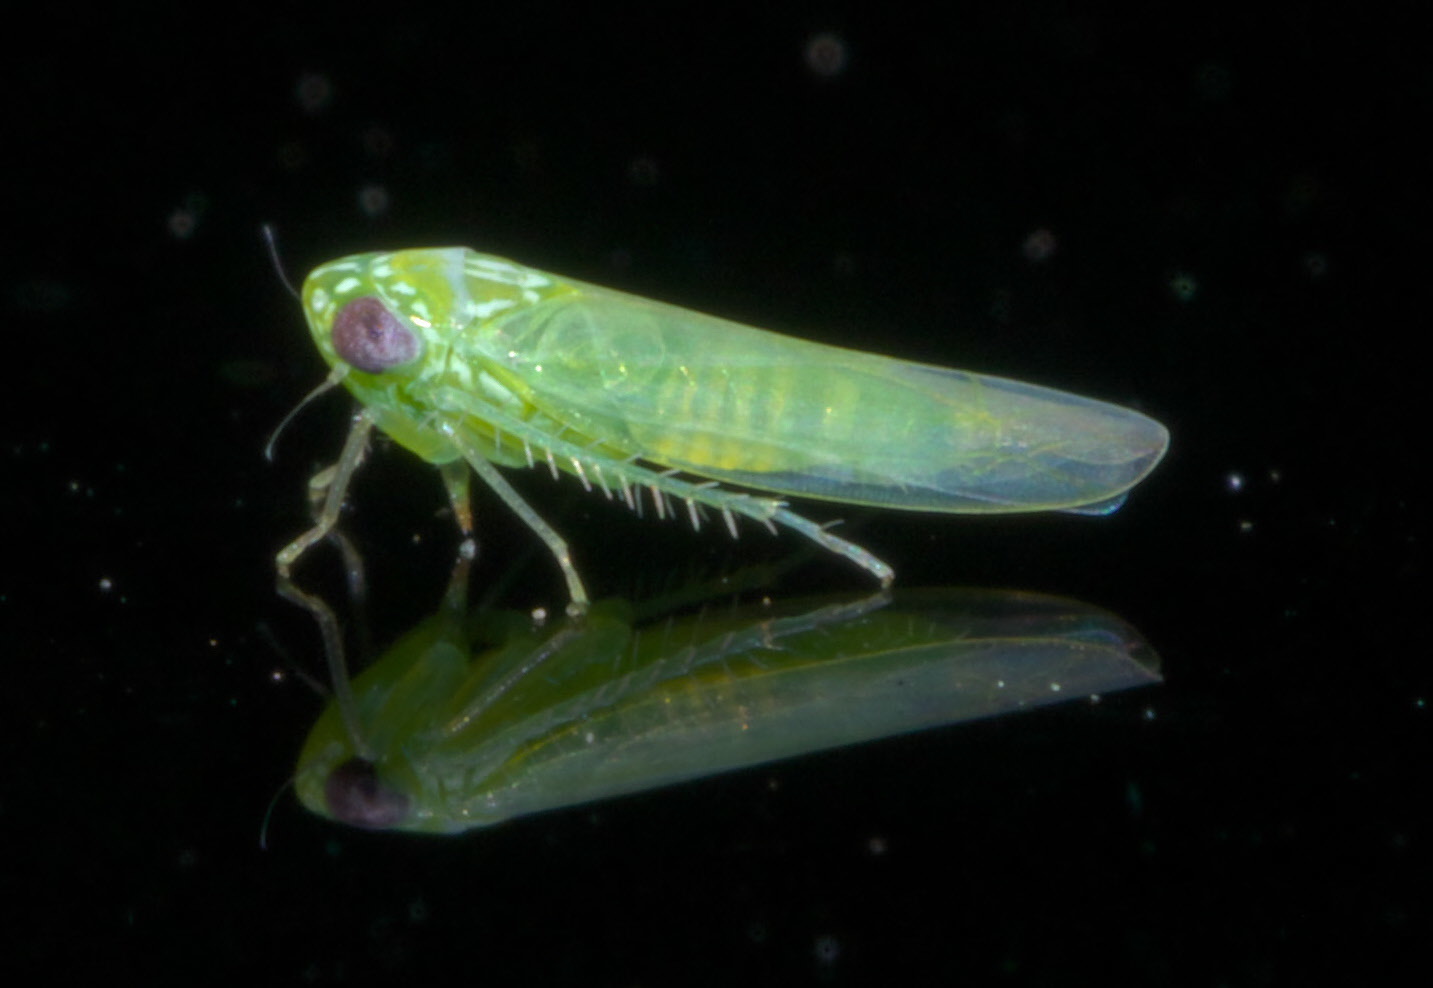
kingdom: Animalia
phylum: Arthropoda
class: Insecta
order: Hemiptera
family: Cicadellidae
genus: Empoasca
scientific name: Empoasca fabae
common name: Potato leafhopper
